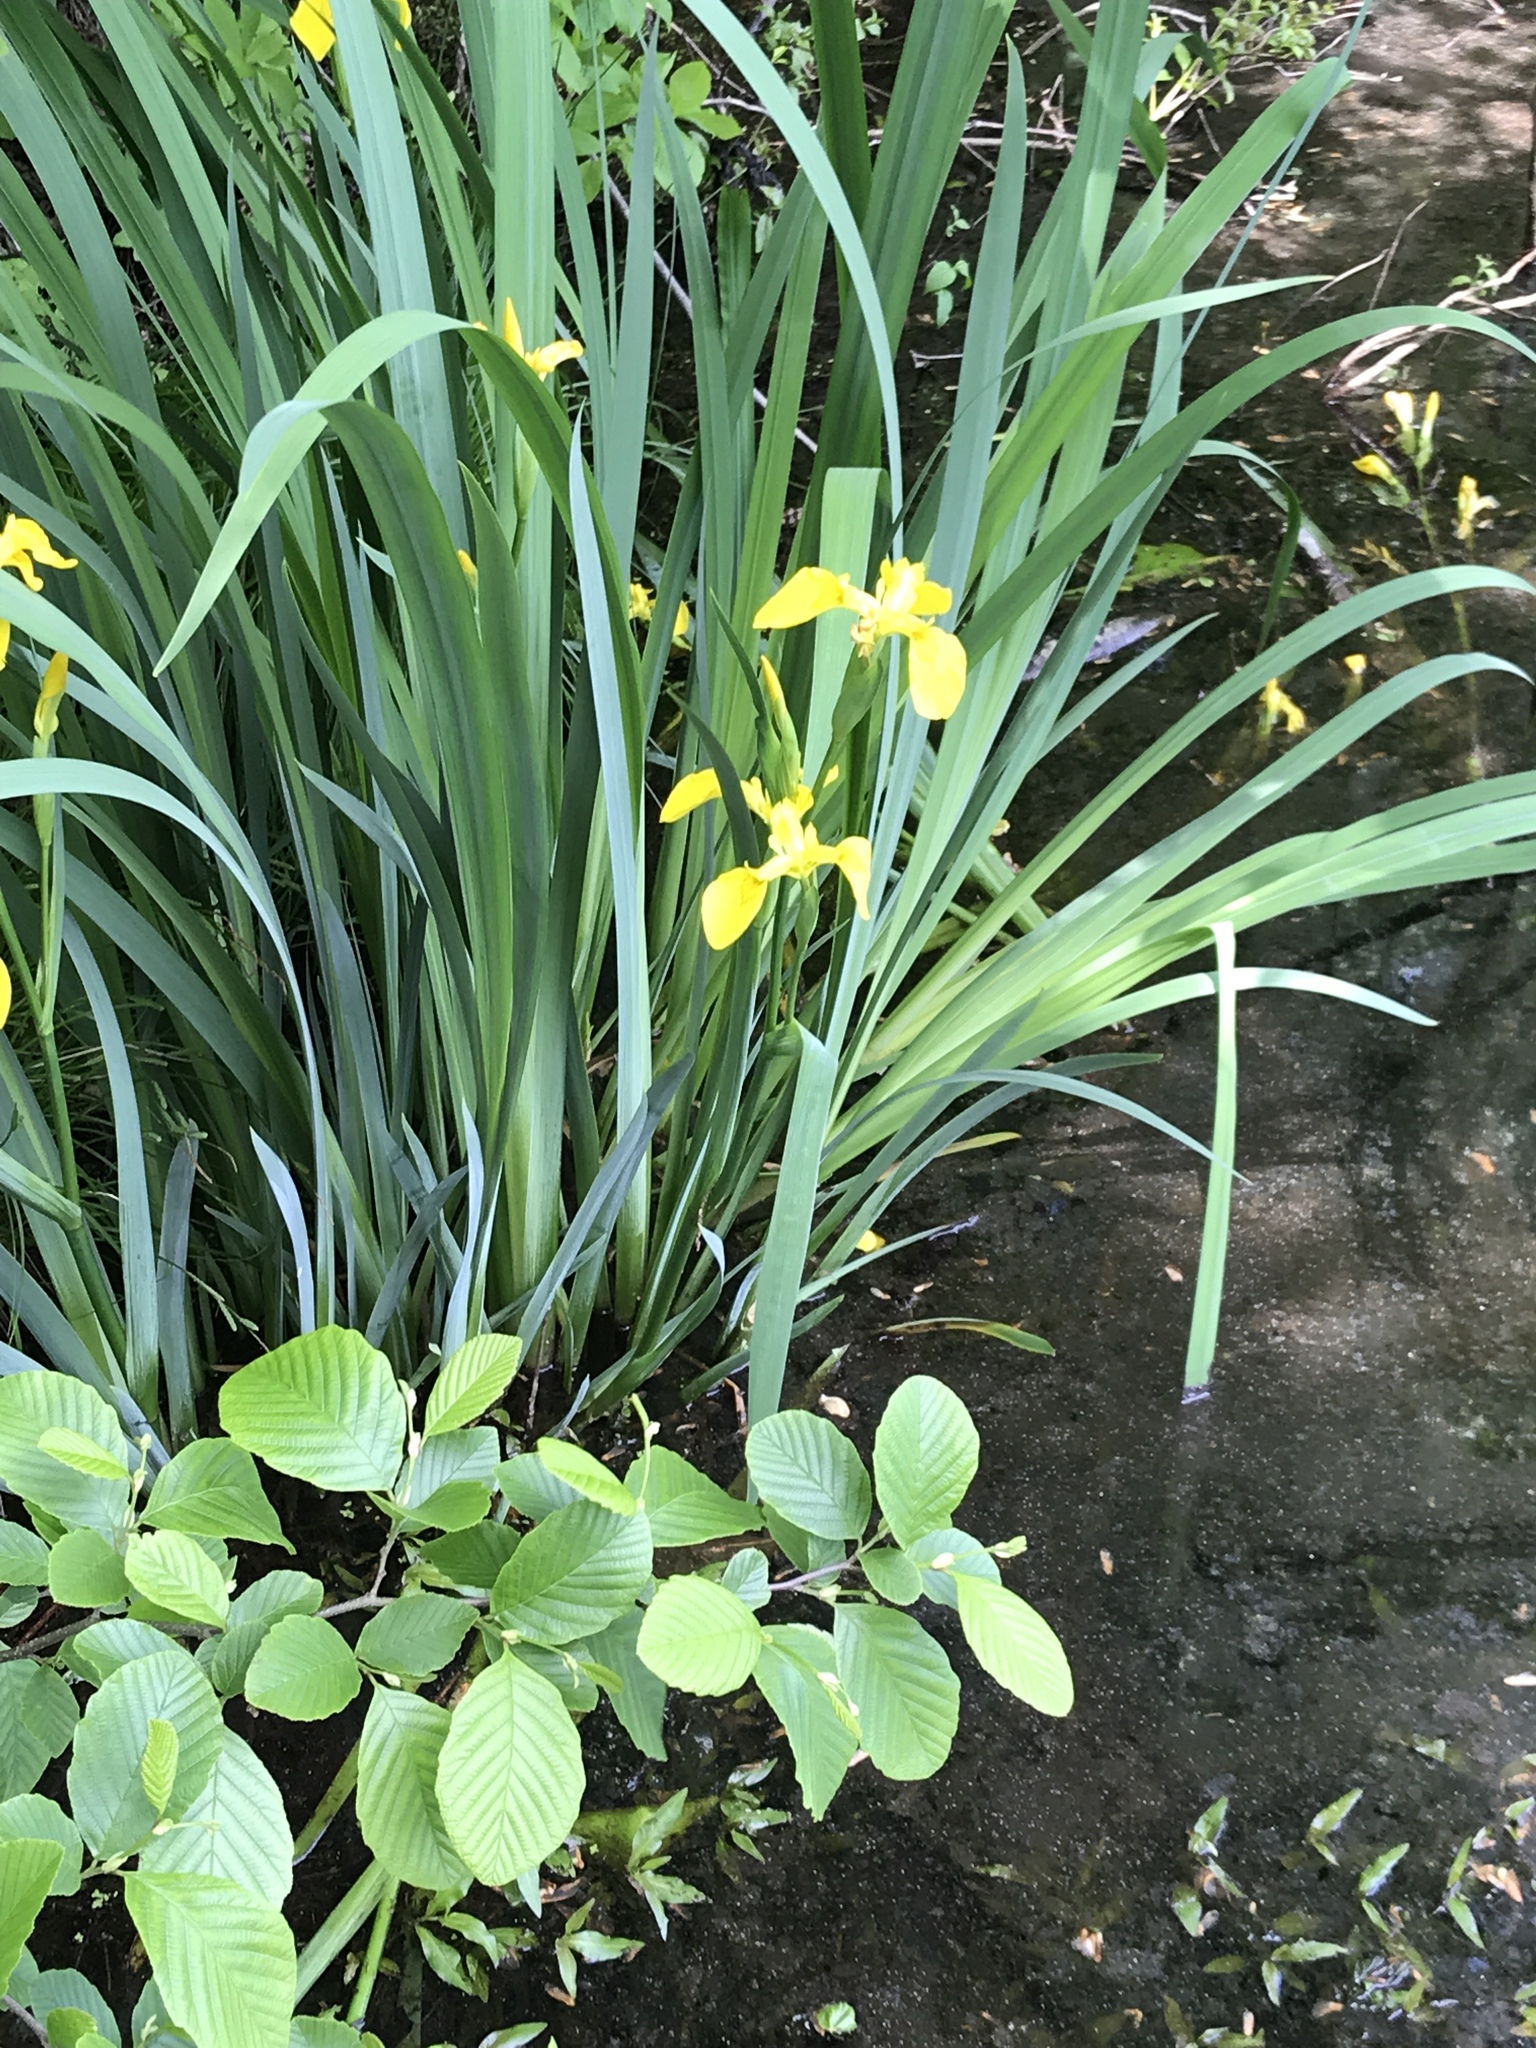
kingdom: Plantae
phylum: Tracheophyta
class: Liliopsida
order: Asparagales
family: Iridaceae
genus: Iris
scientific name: Iris pseudacorus
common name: Yellow flag
